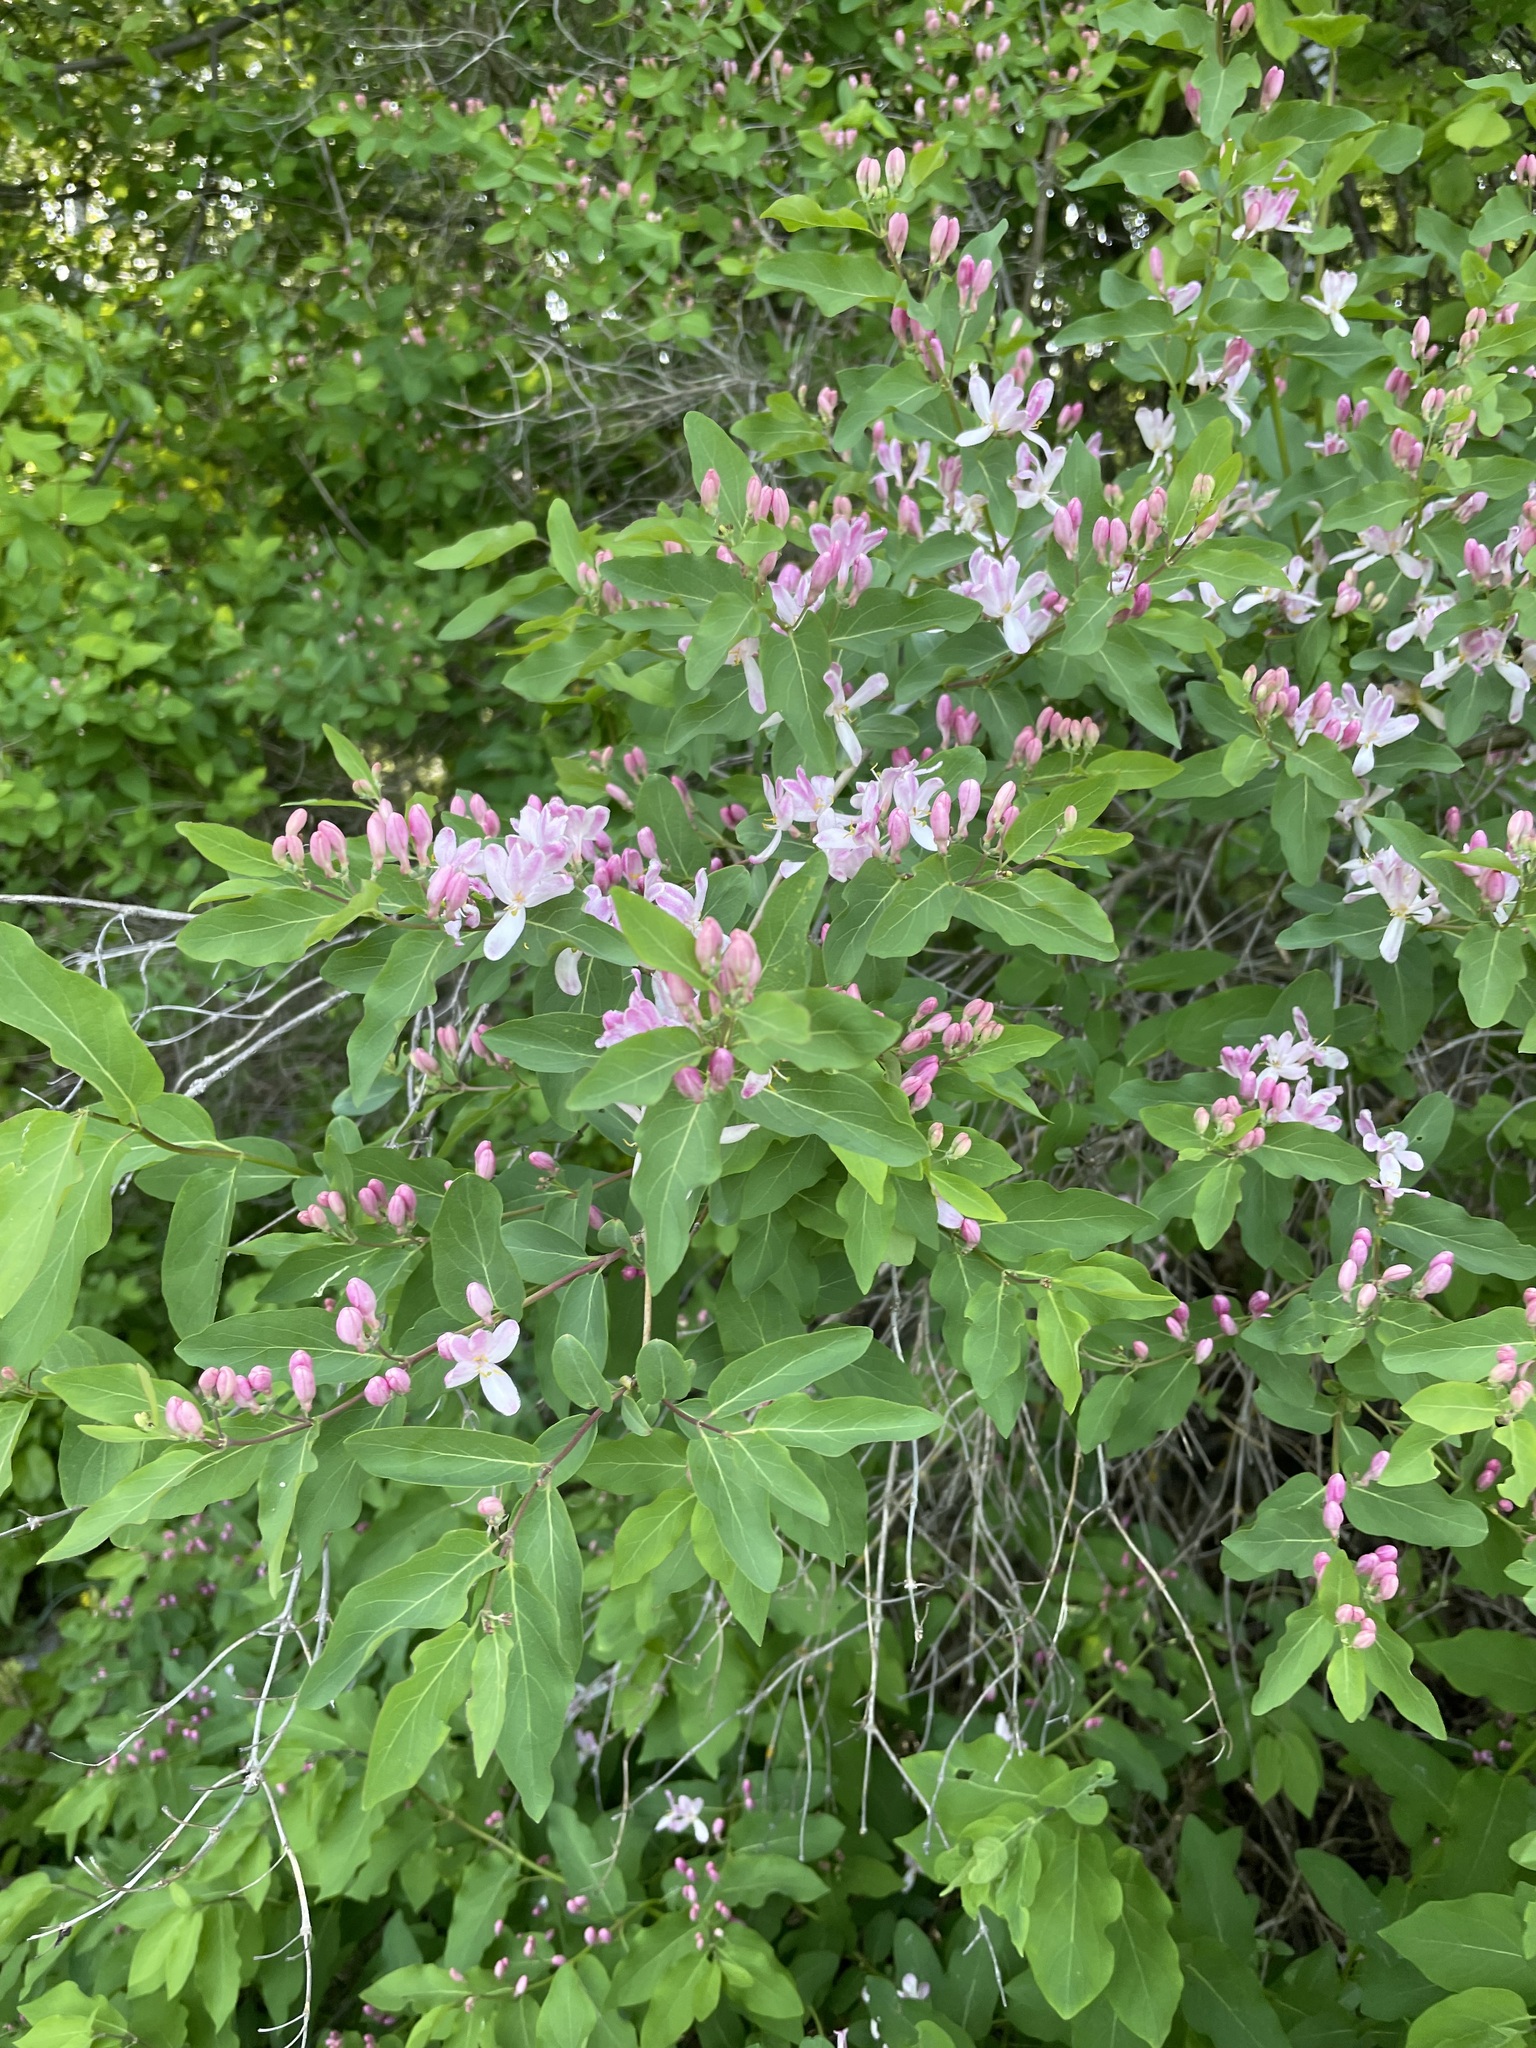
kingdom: Plantae
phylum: Tracheophyta
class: Magnoliopsida
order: Dipsacales
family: Caprifoliaceae
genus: Lonicera
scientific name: Lonicera tatarica
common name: Tatarian honeysuckle
